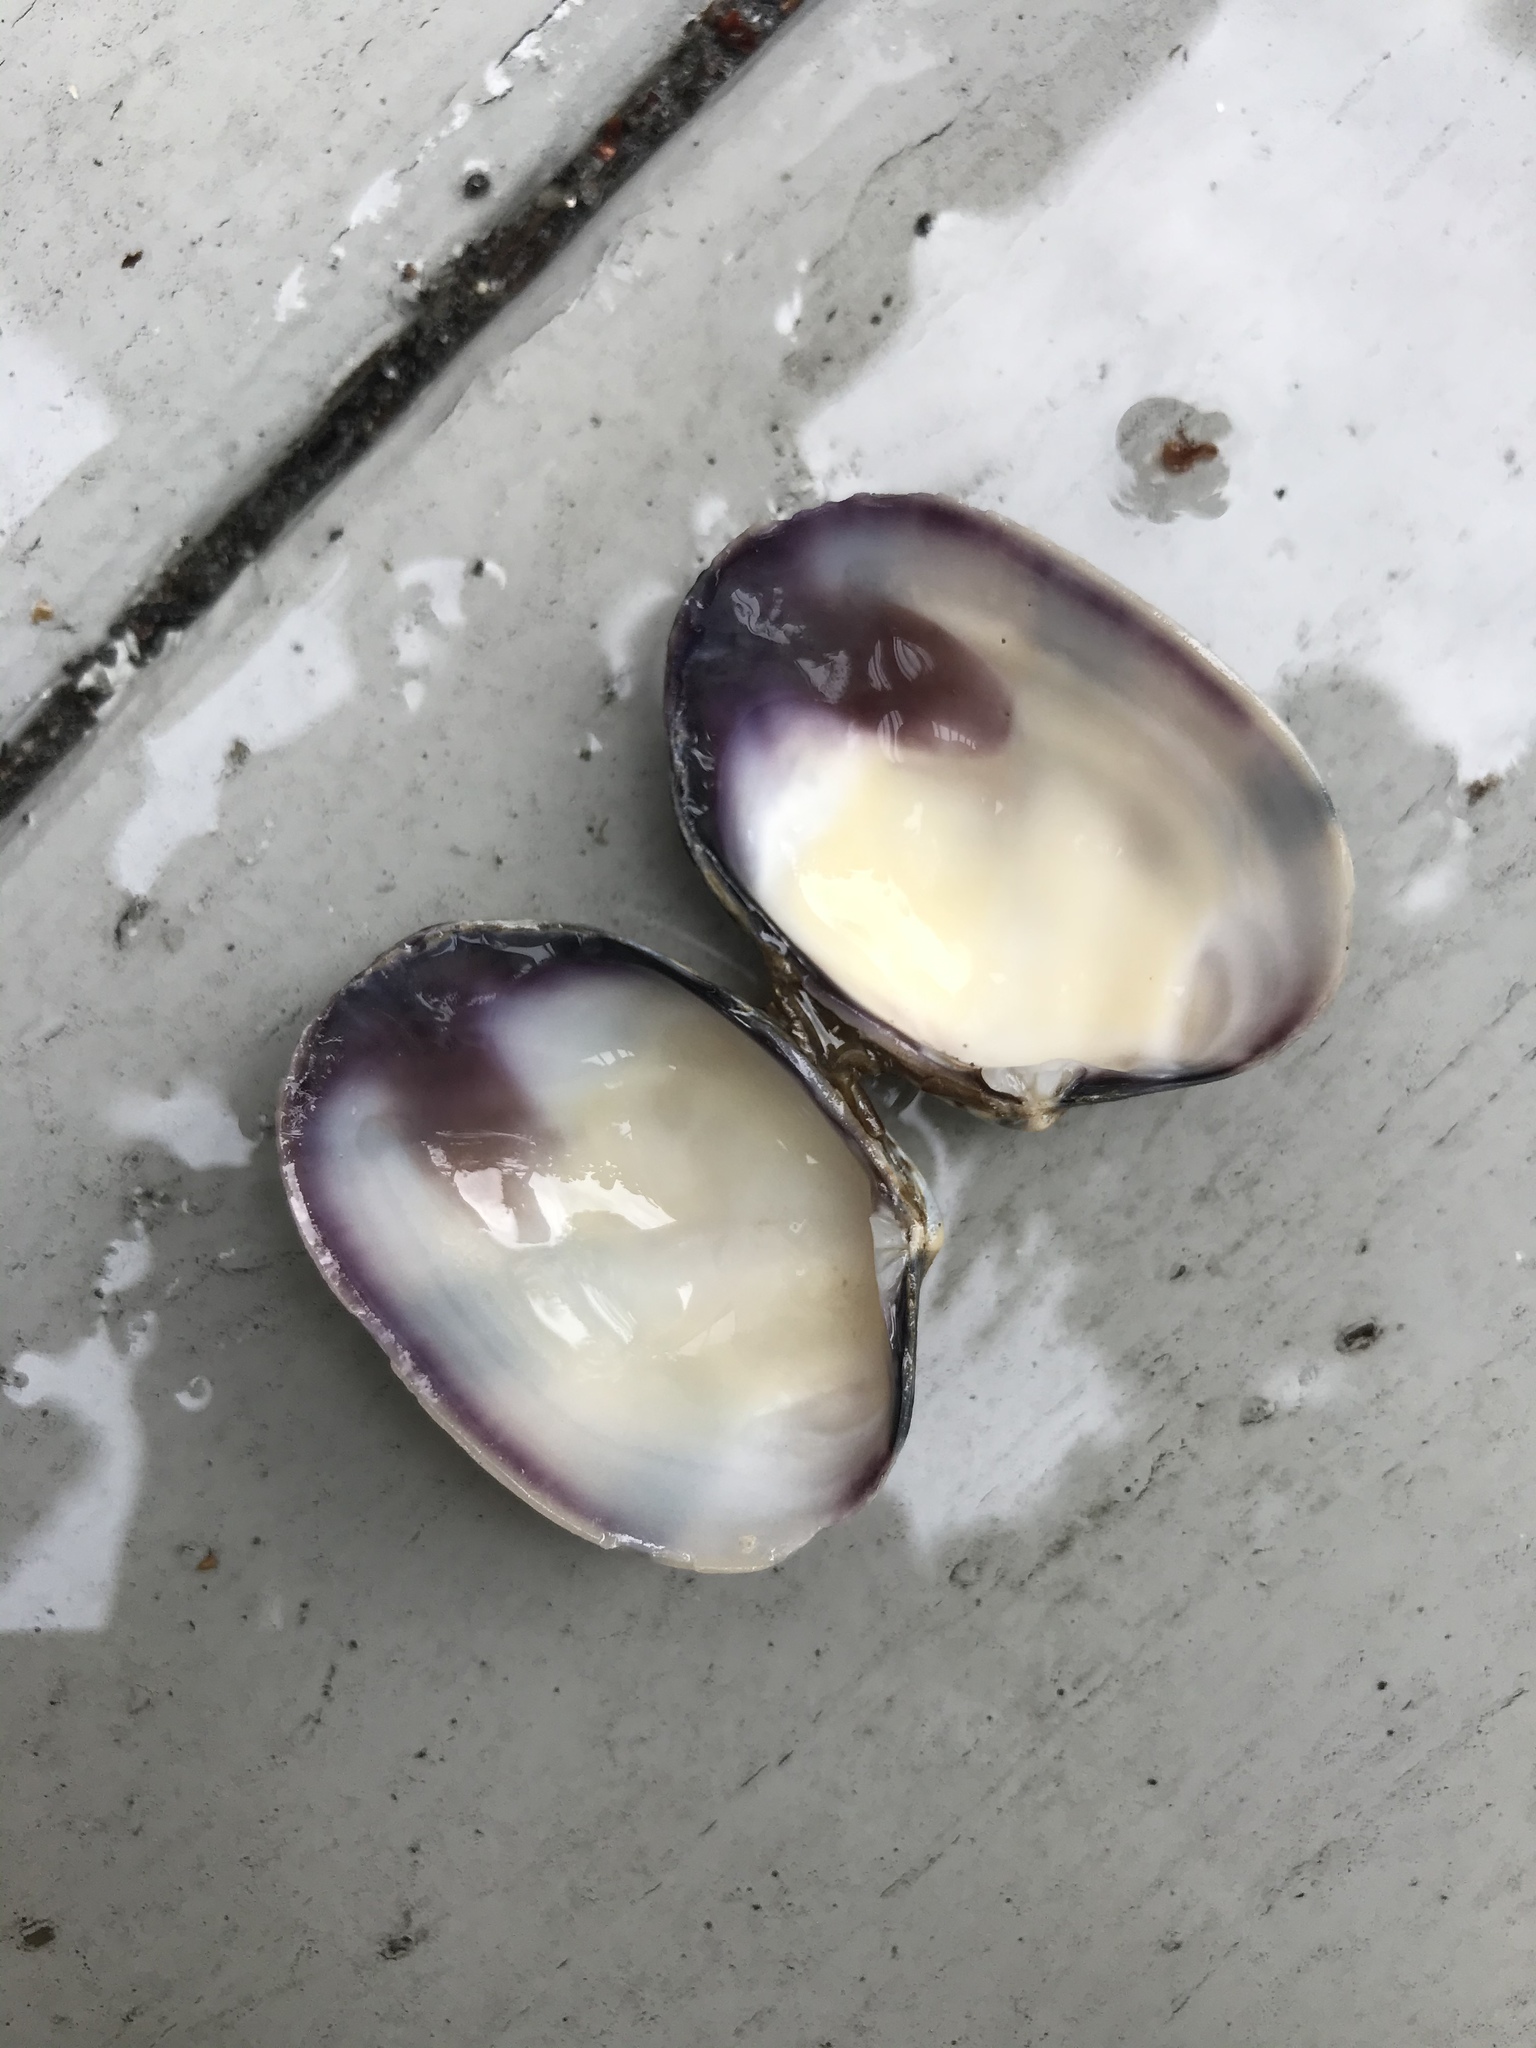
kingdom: Animalia
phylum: Mollusca
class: Bivalvia
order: Venerida
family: Veneridae
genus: Ruditapes
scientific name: Ruditapes philippinarum
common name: Manila clam
